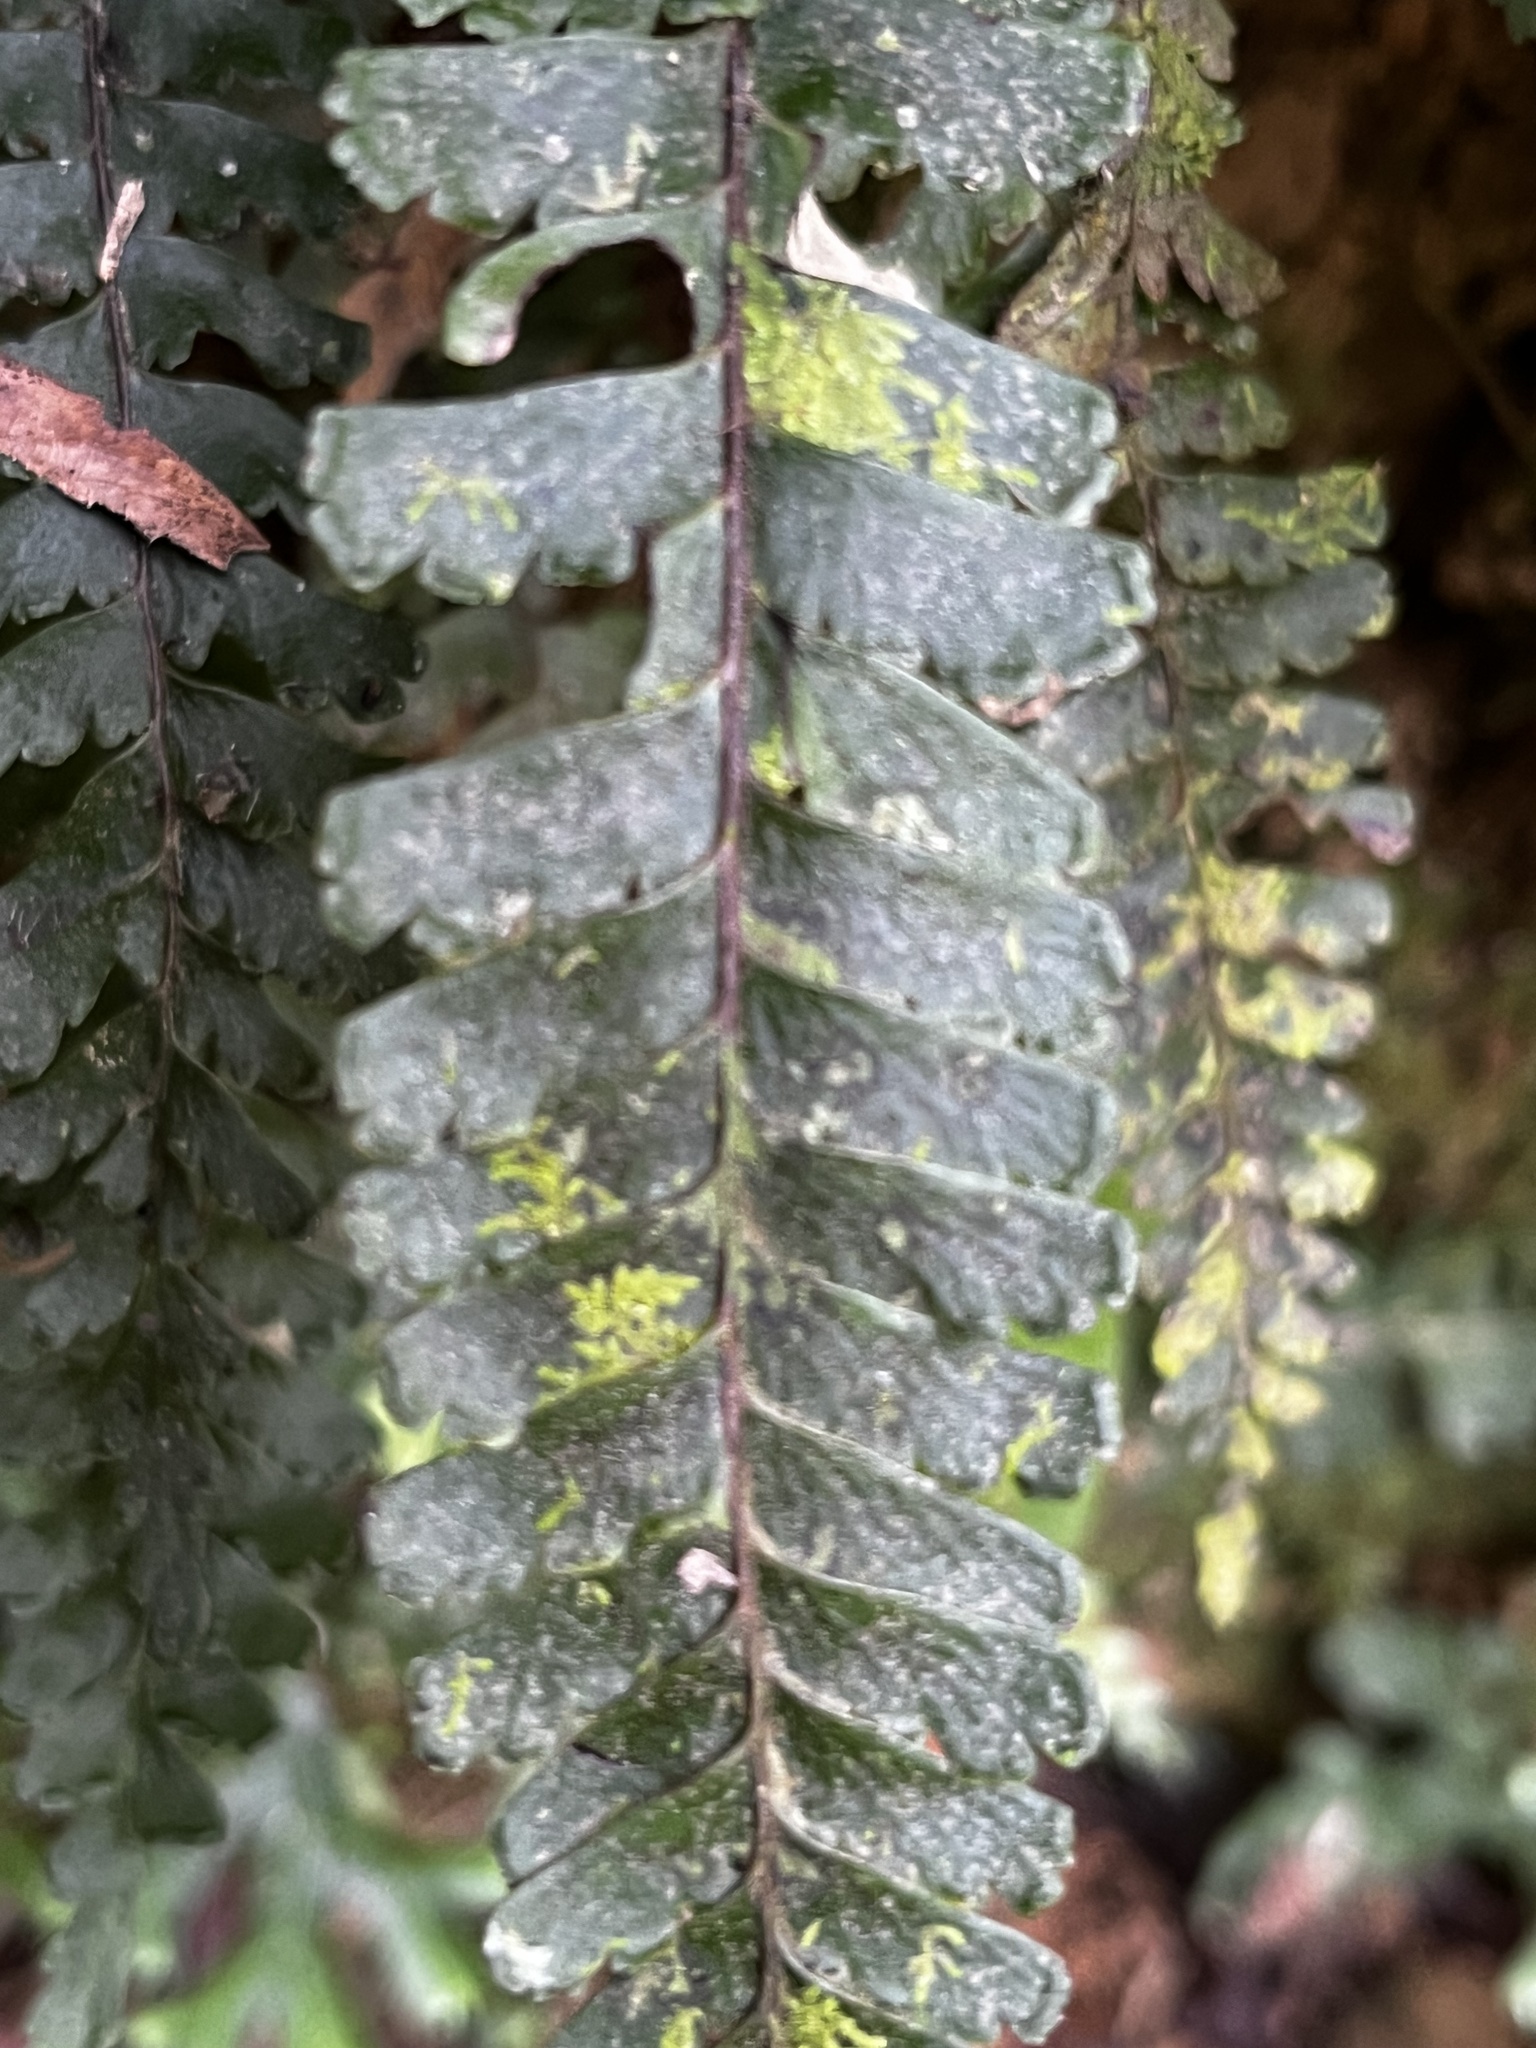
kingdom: Plantae
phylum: Tracheophyta
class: Polypodiopsida
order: Polypodiales
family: Pteridaceae
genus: Adiantum
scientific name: Adiantum diaphanum
